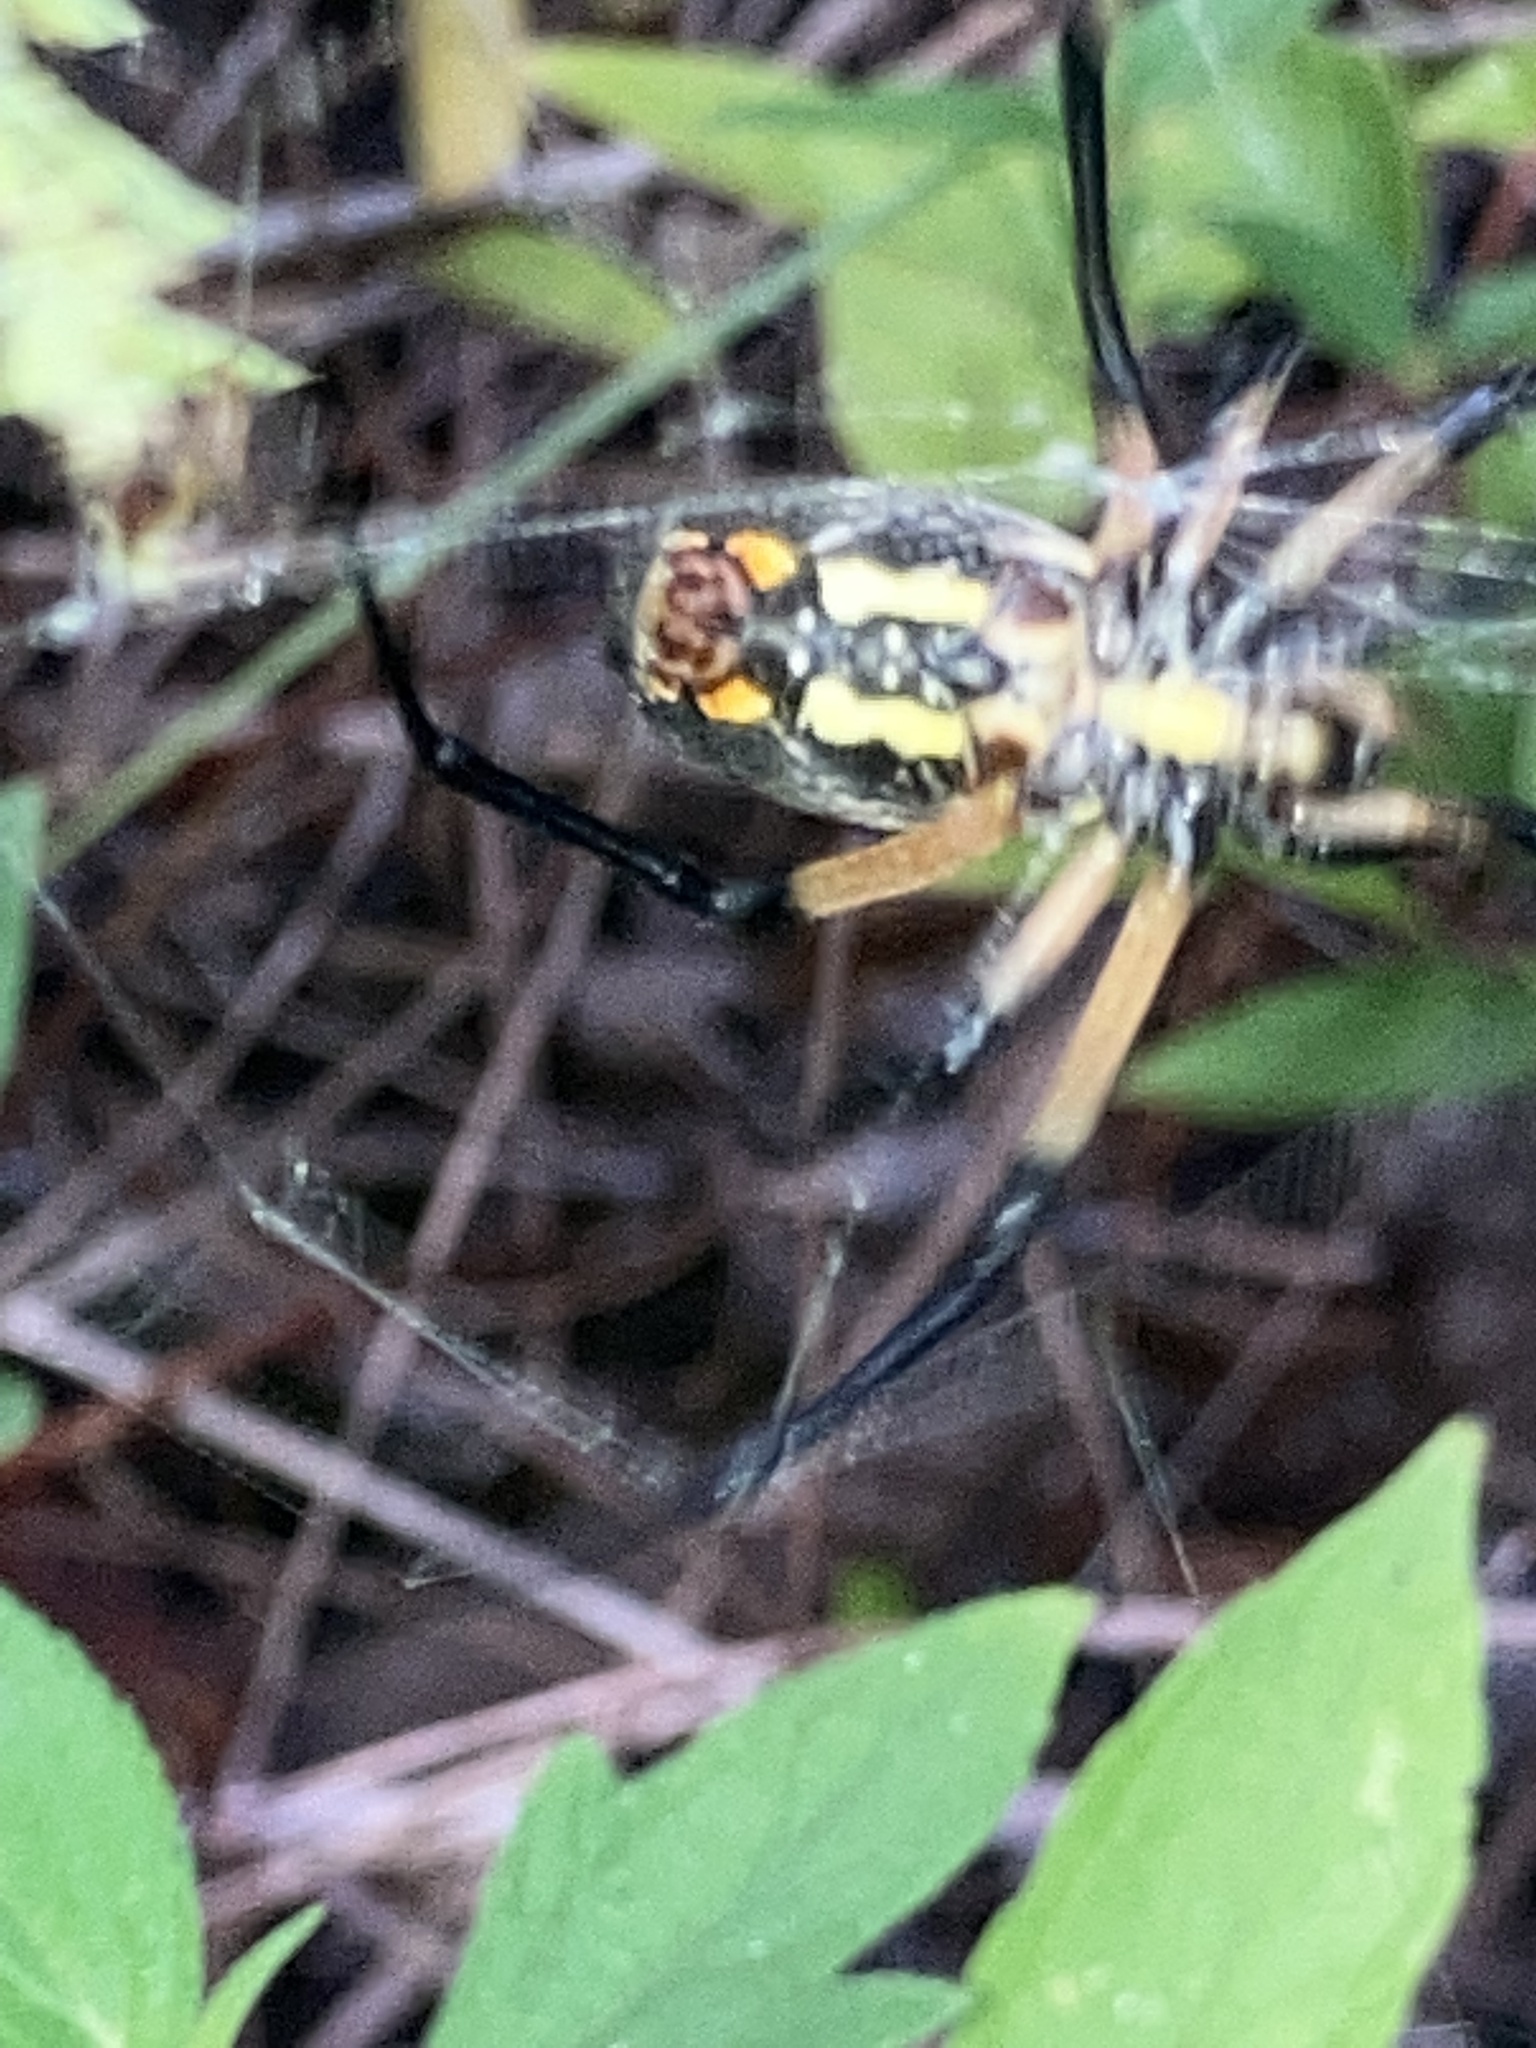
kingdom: Animalia
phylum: Arthropoda
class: Arachnida
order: Araneae
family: Araneidae
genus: Argiope
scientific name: Argiope aurantia
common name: Orb weavers
